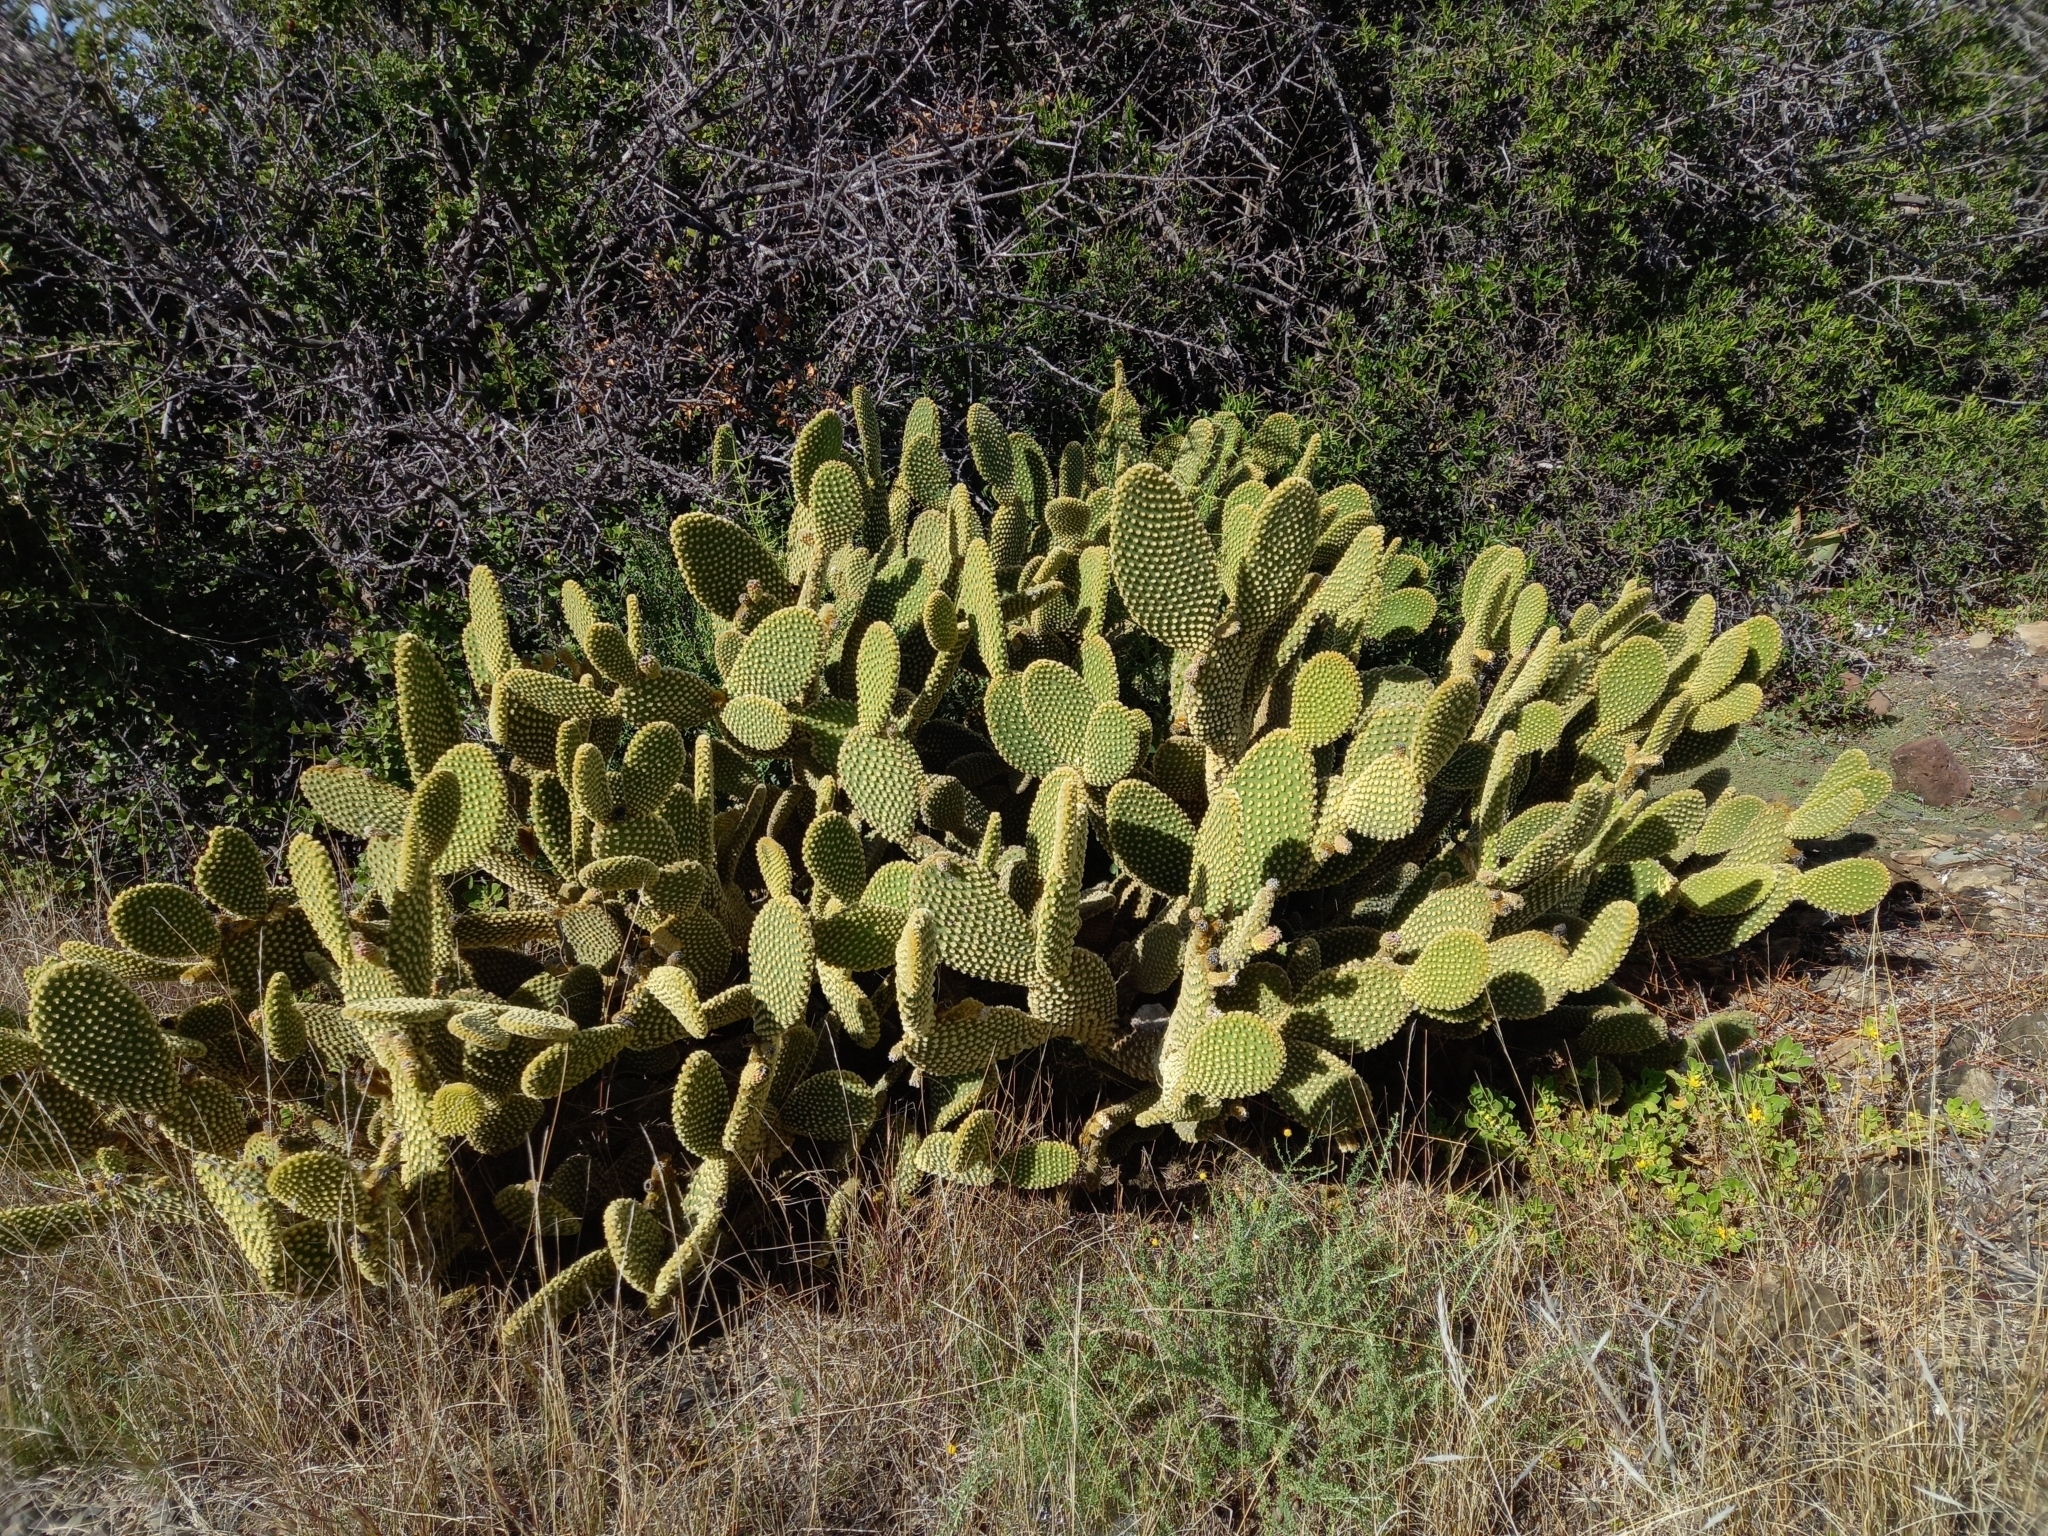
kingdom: Plantae
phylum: Tracheophyta
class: Magnoliopsida
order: Caryophyllales
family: Cactaceae
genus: Opuntia
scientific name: Opuntia microdasys
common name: Angel's-wings
